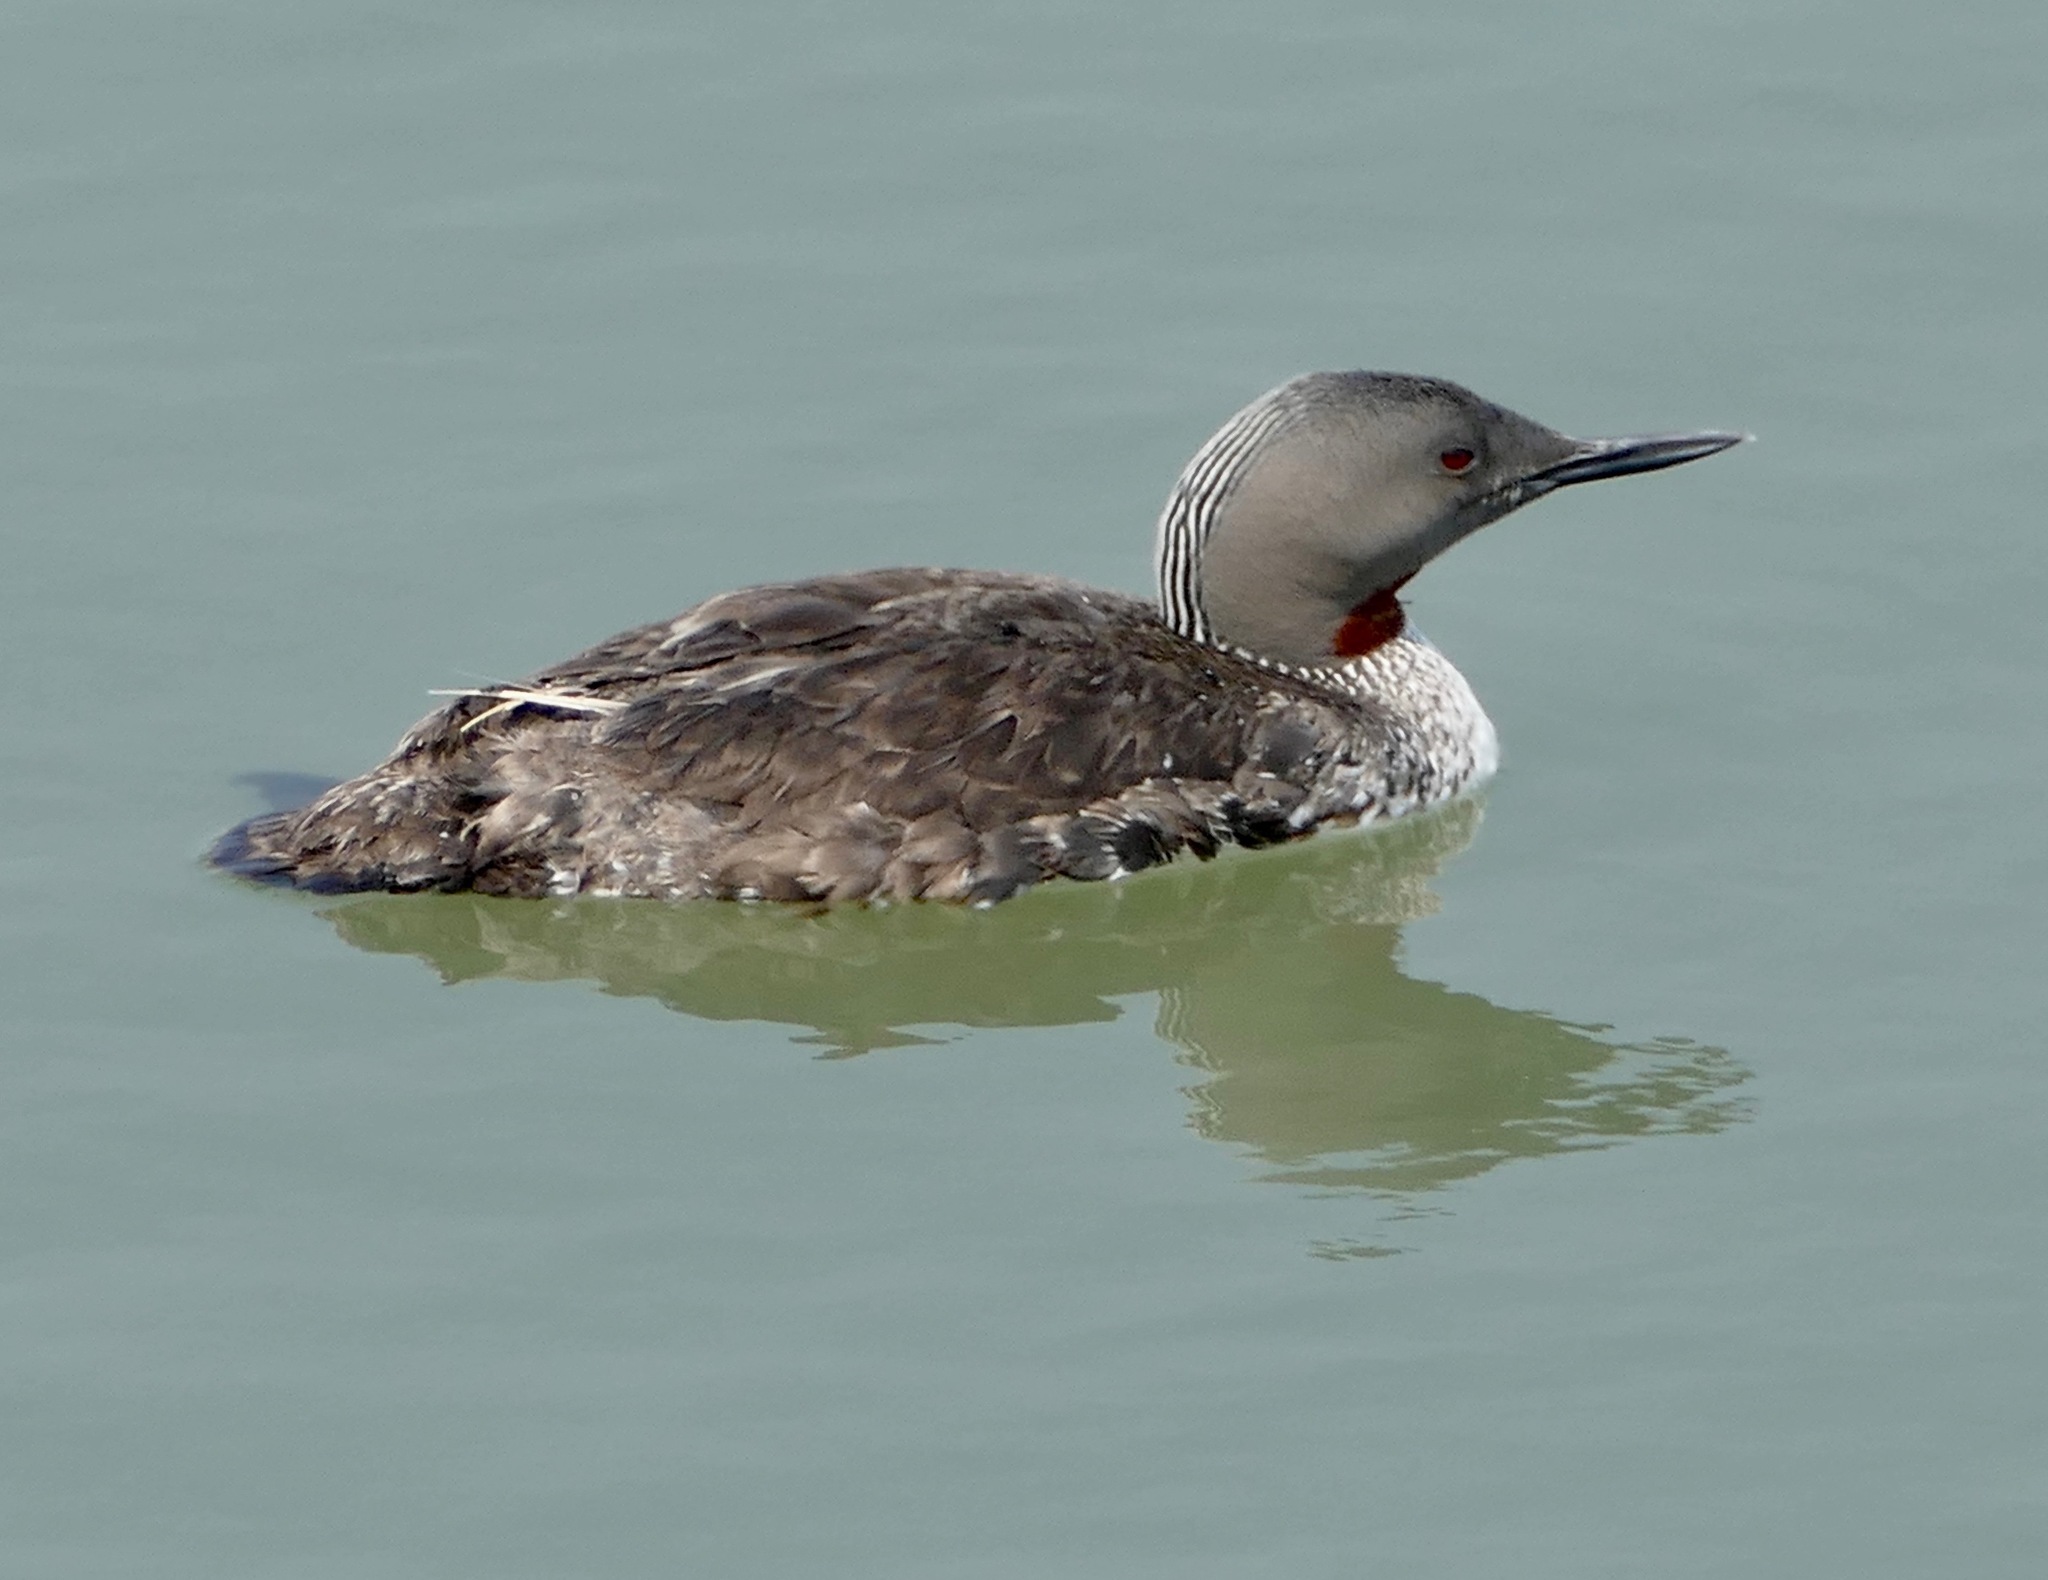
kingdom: Animalia
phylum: Chordata
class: Aves
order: Gaviiformes
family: Gaviidae
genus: Gavia
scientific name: Gavia stellata
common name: Red-throated loon
